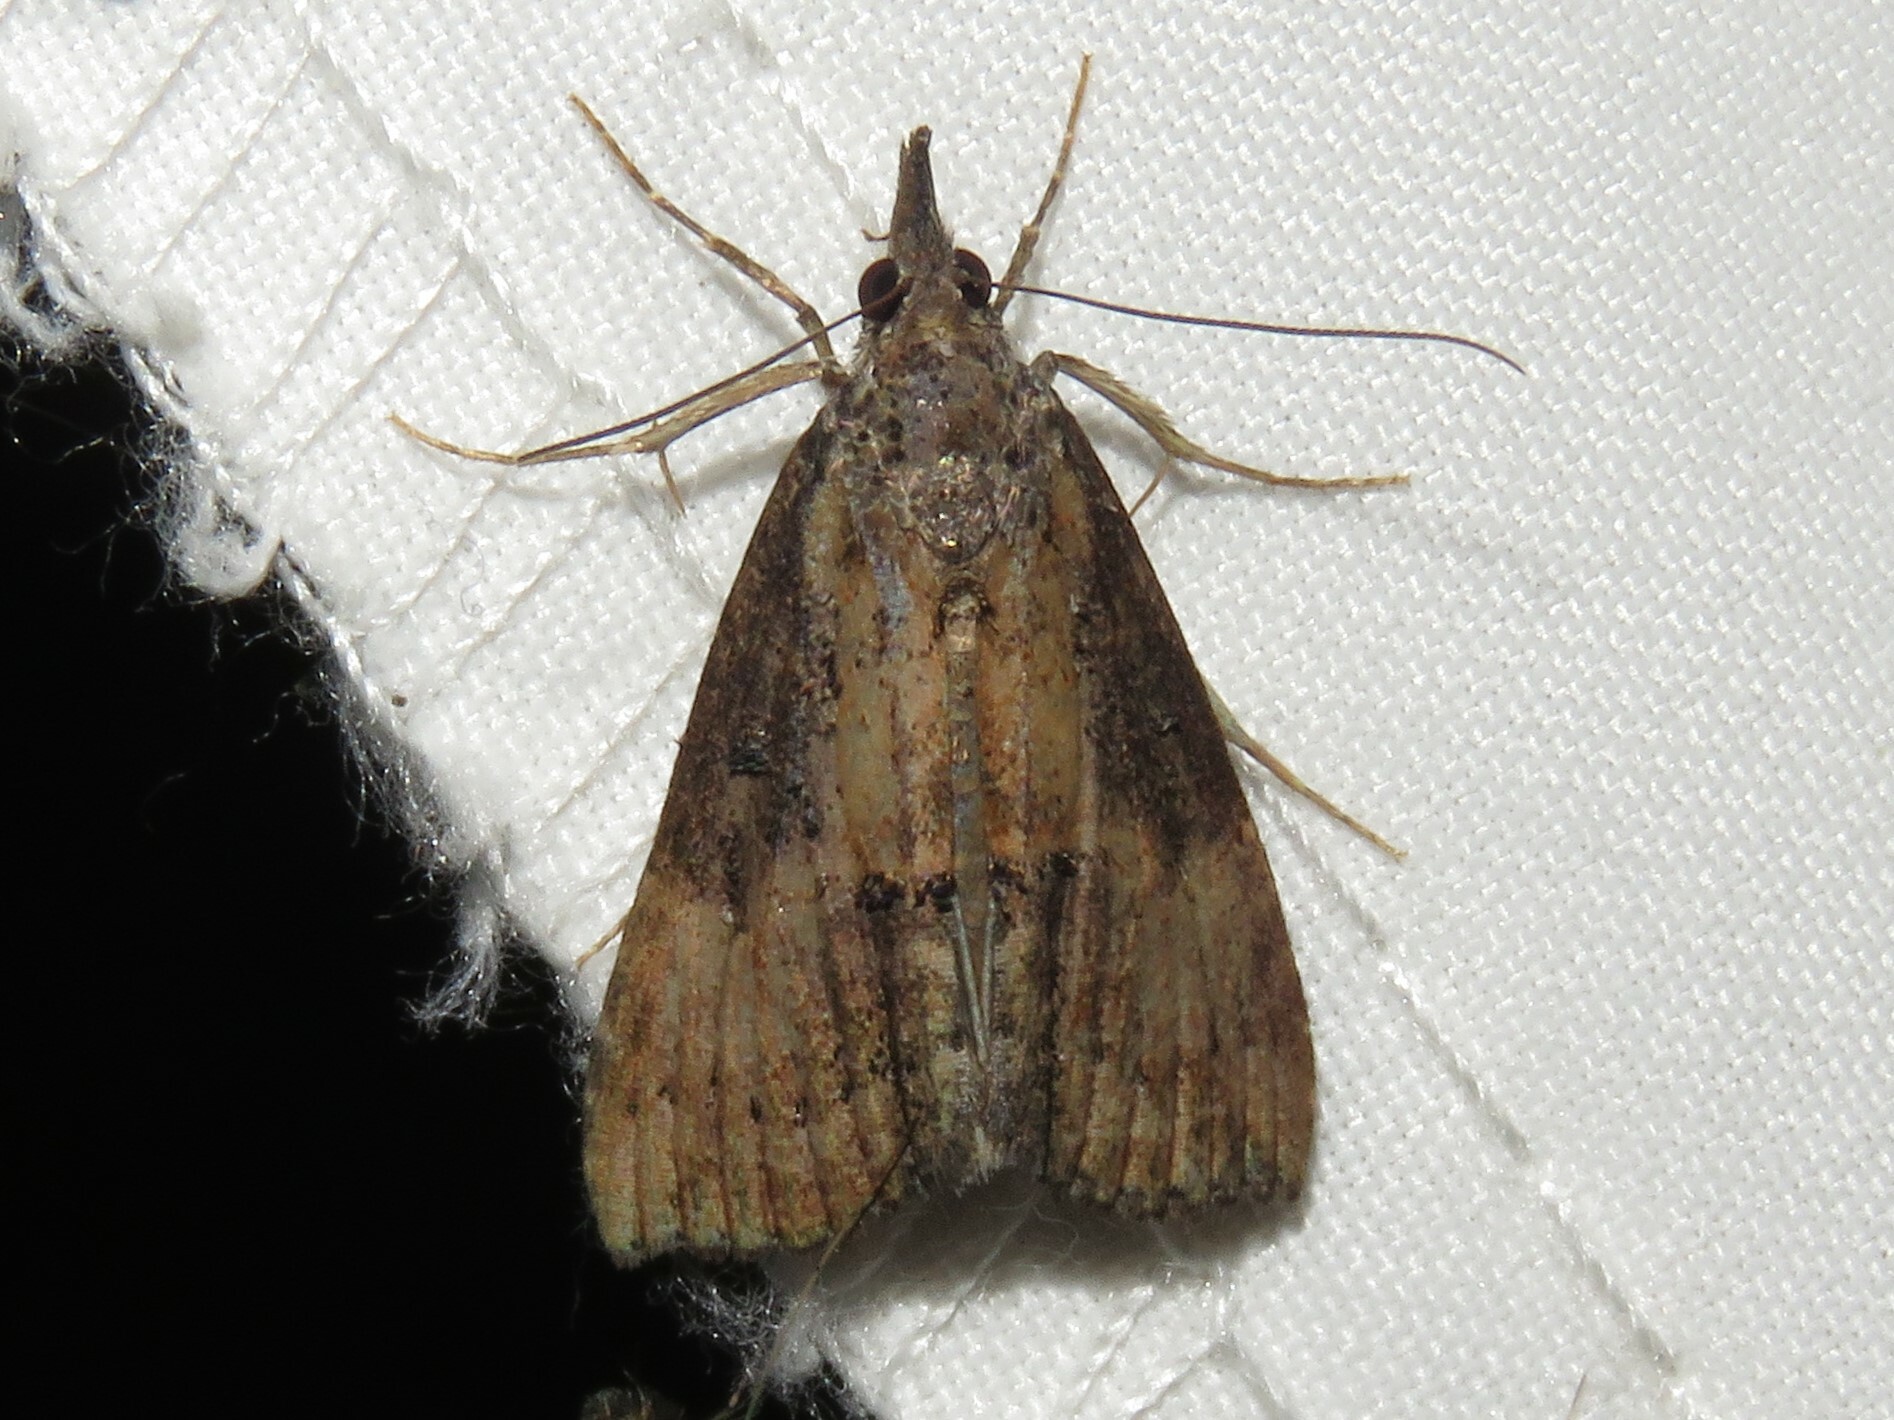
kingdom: Animalia
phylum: Arthropoda
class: Insecta
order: Lepidoptera
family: Erebidae
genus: Hypena
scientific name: Hypena scabra
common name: Green cloverworm
